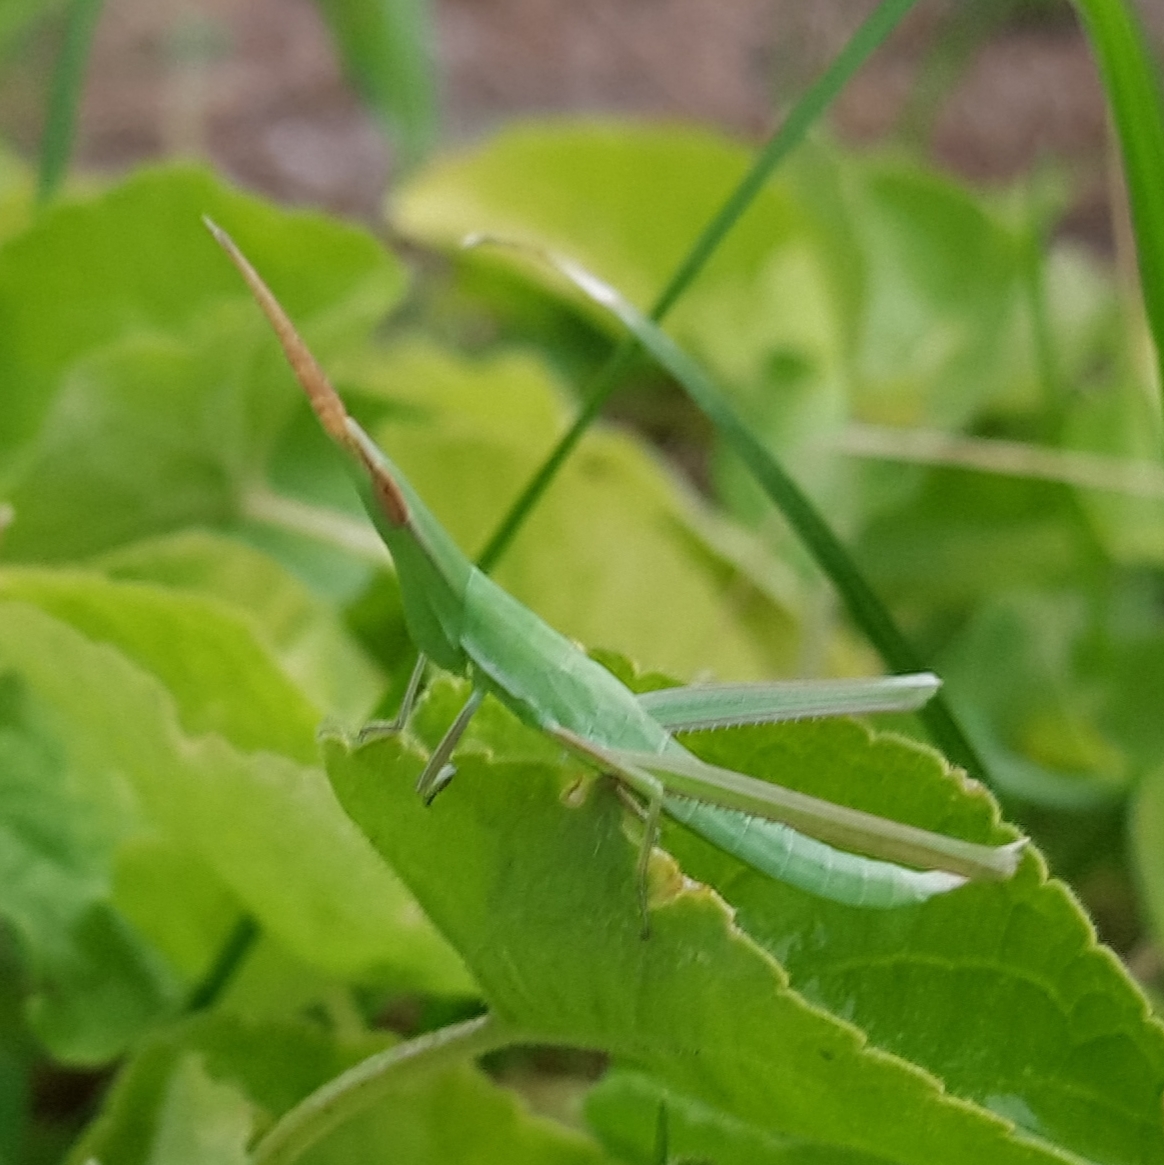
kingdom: Animalia
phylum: Arthropoda
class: Insecta
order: Orthoptera
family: Acrididae
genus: Acrida
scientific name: Acrida conica
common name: Giant green slantface
